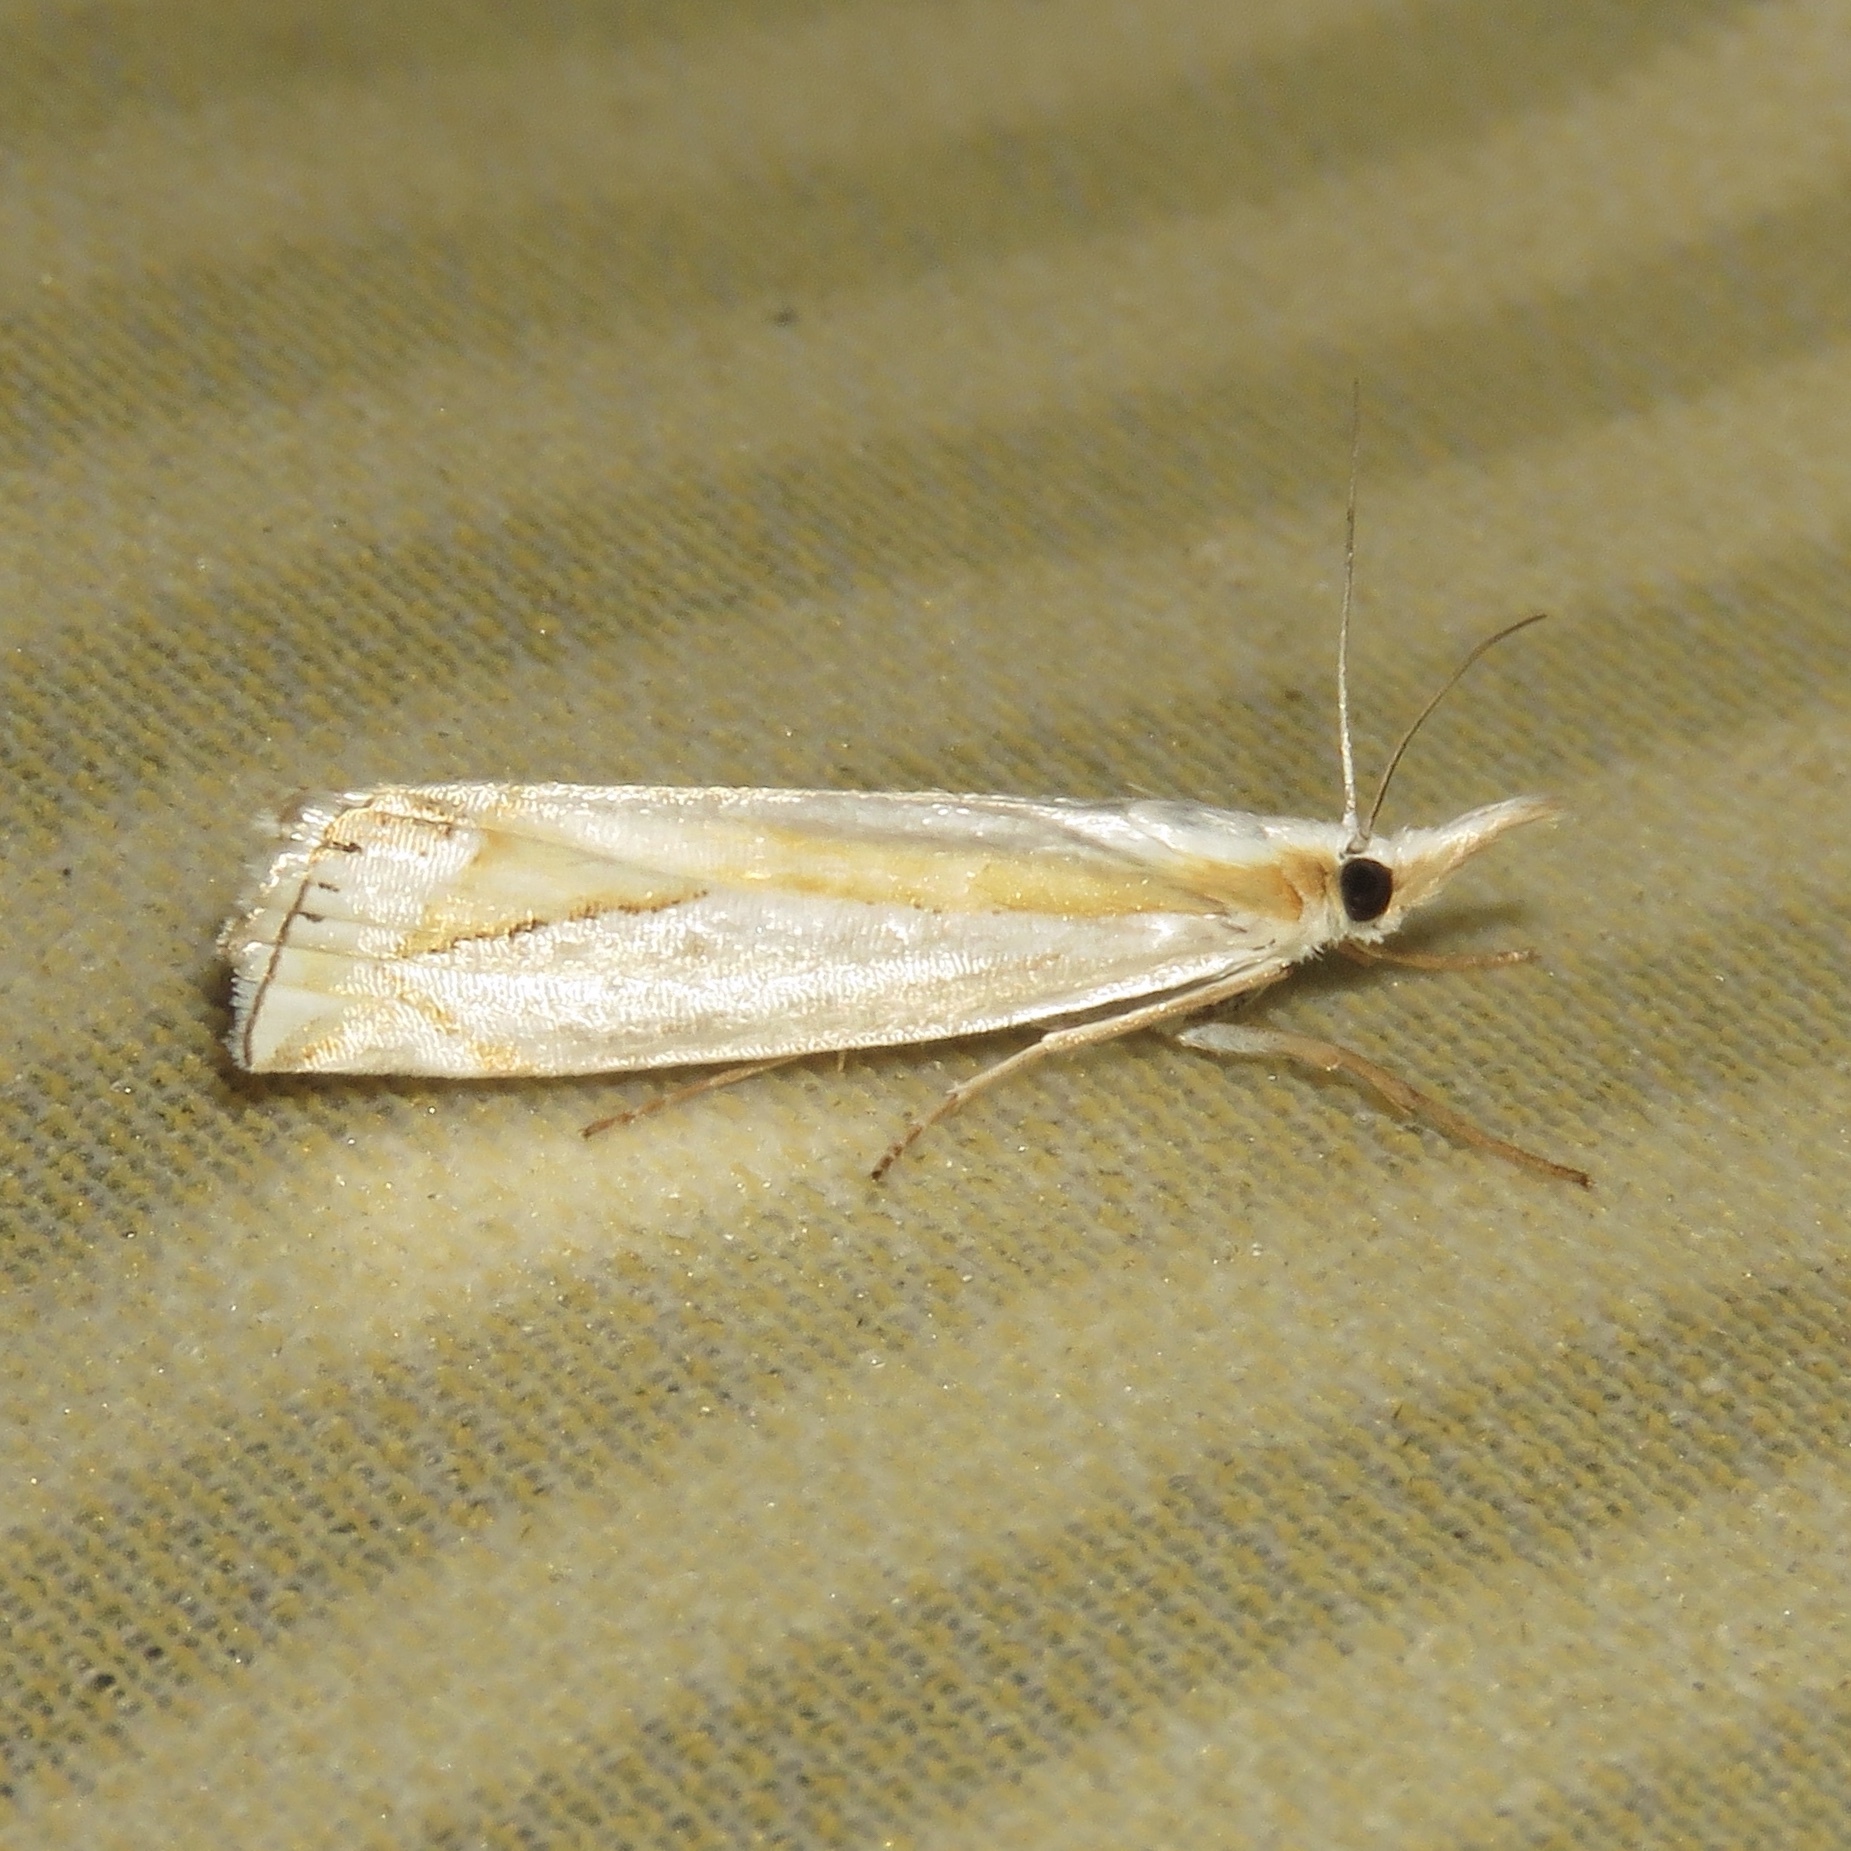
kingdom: Animalia
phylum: Arthropoda
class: Insecta
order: Lepidoptera
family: Crambidae
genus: Crambus
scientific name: Crambus girardellus
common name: Girard's grass-veneer
